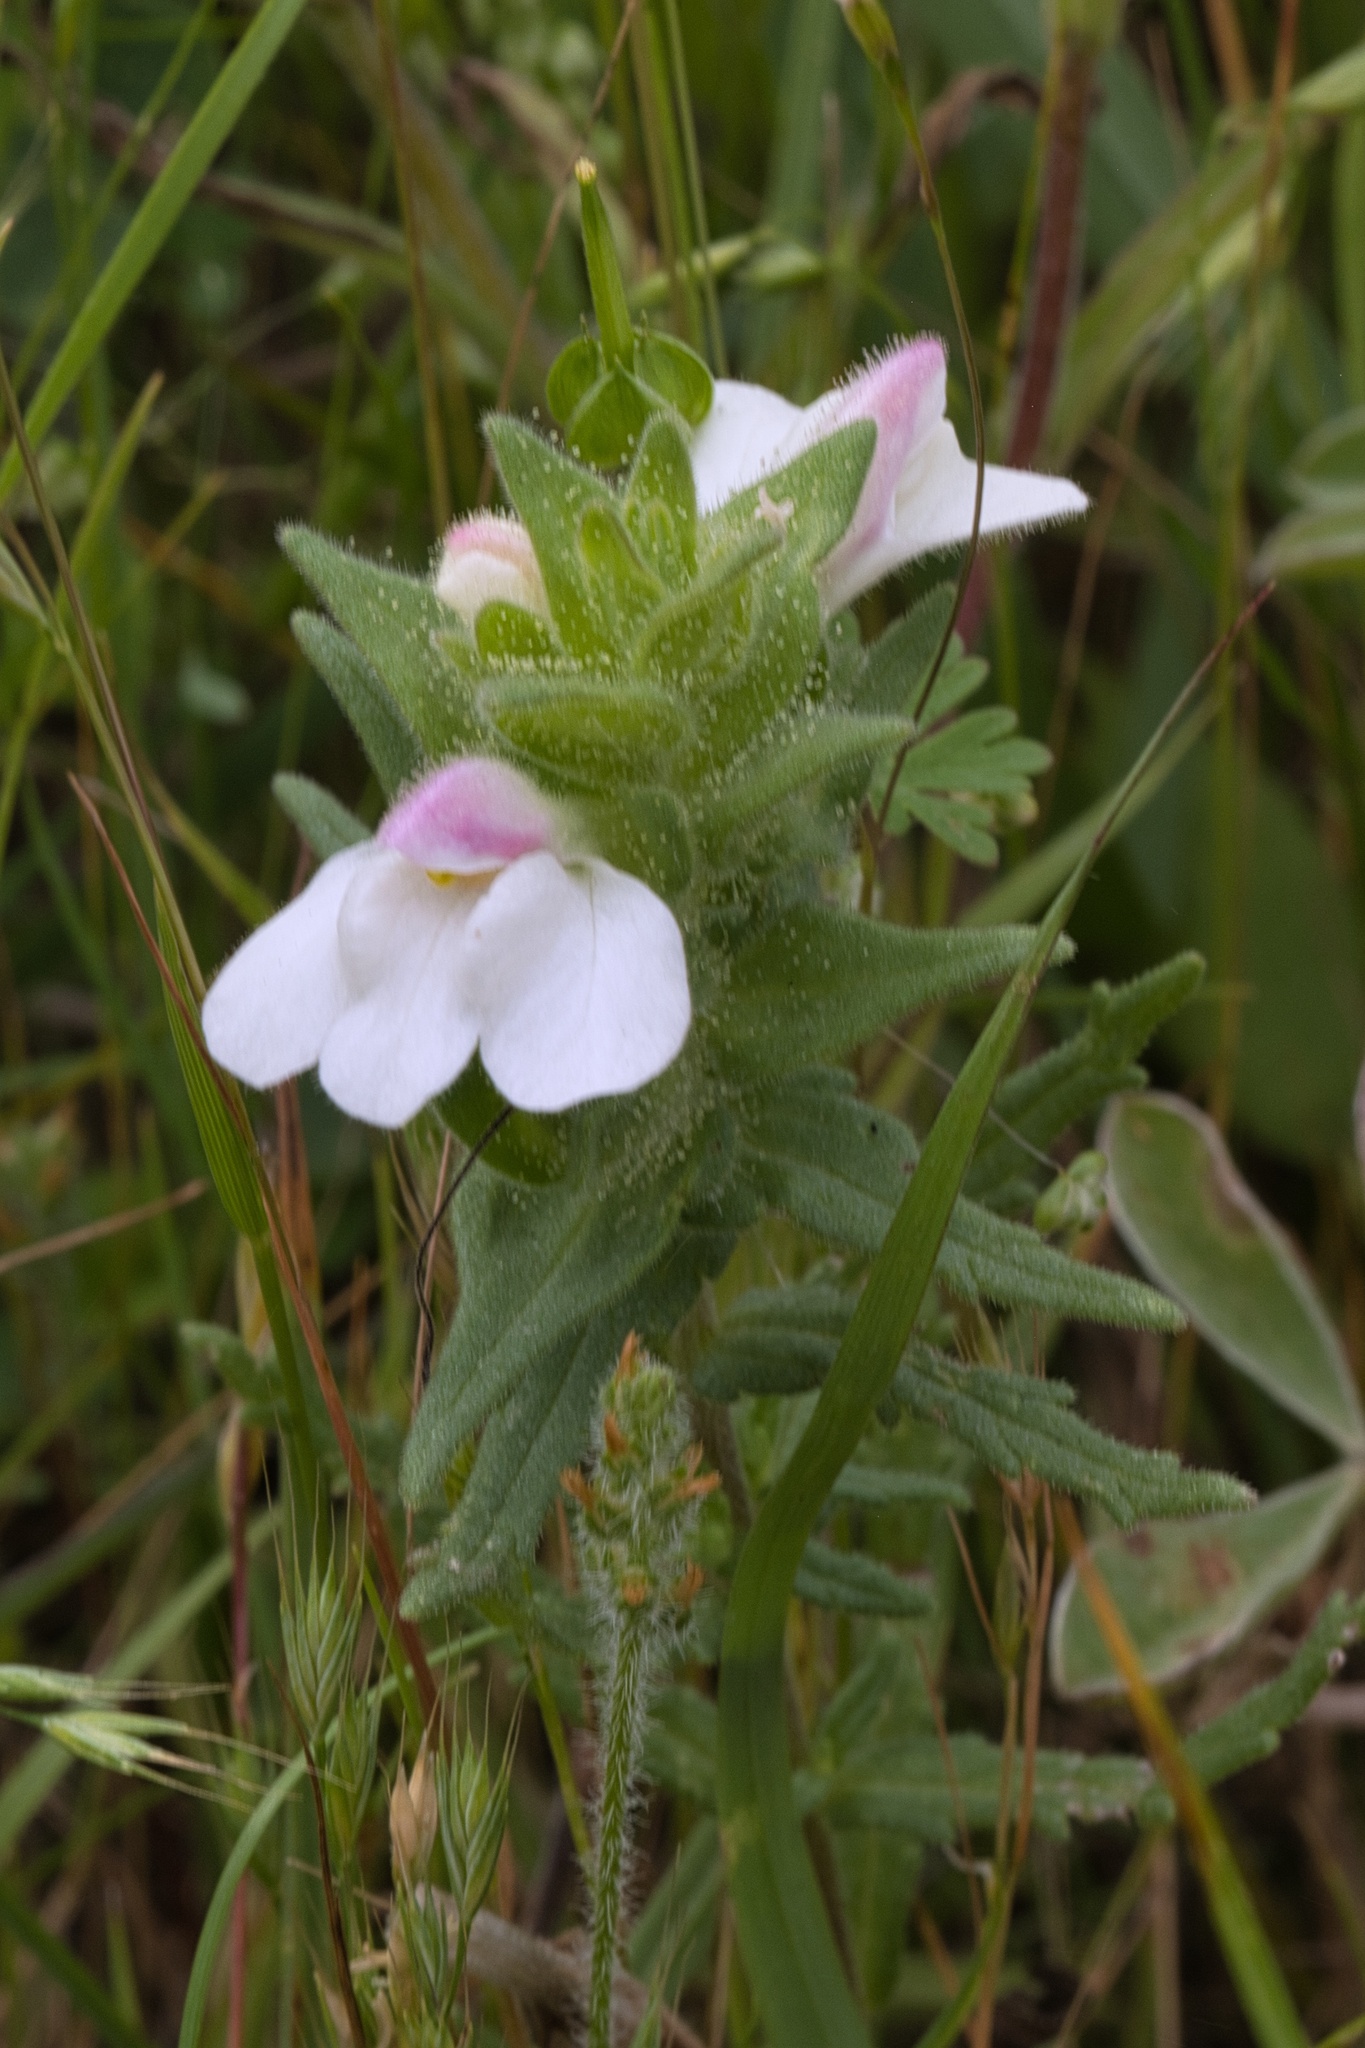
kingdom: Plantae
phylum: Tracheophyta
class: Magnoliopsida
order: Lamiales
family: Orobanchaceae
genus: Bellardia
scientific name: Bellardia trixago
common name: Mediterranean lineseed
